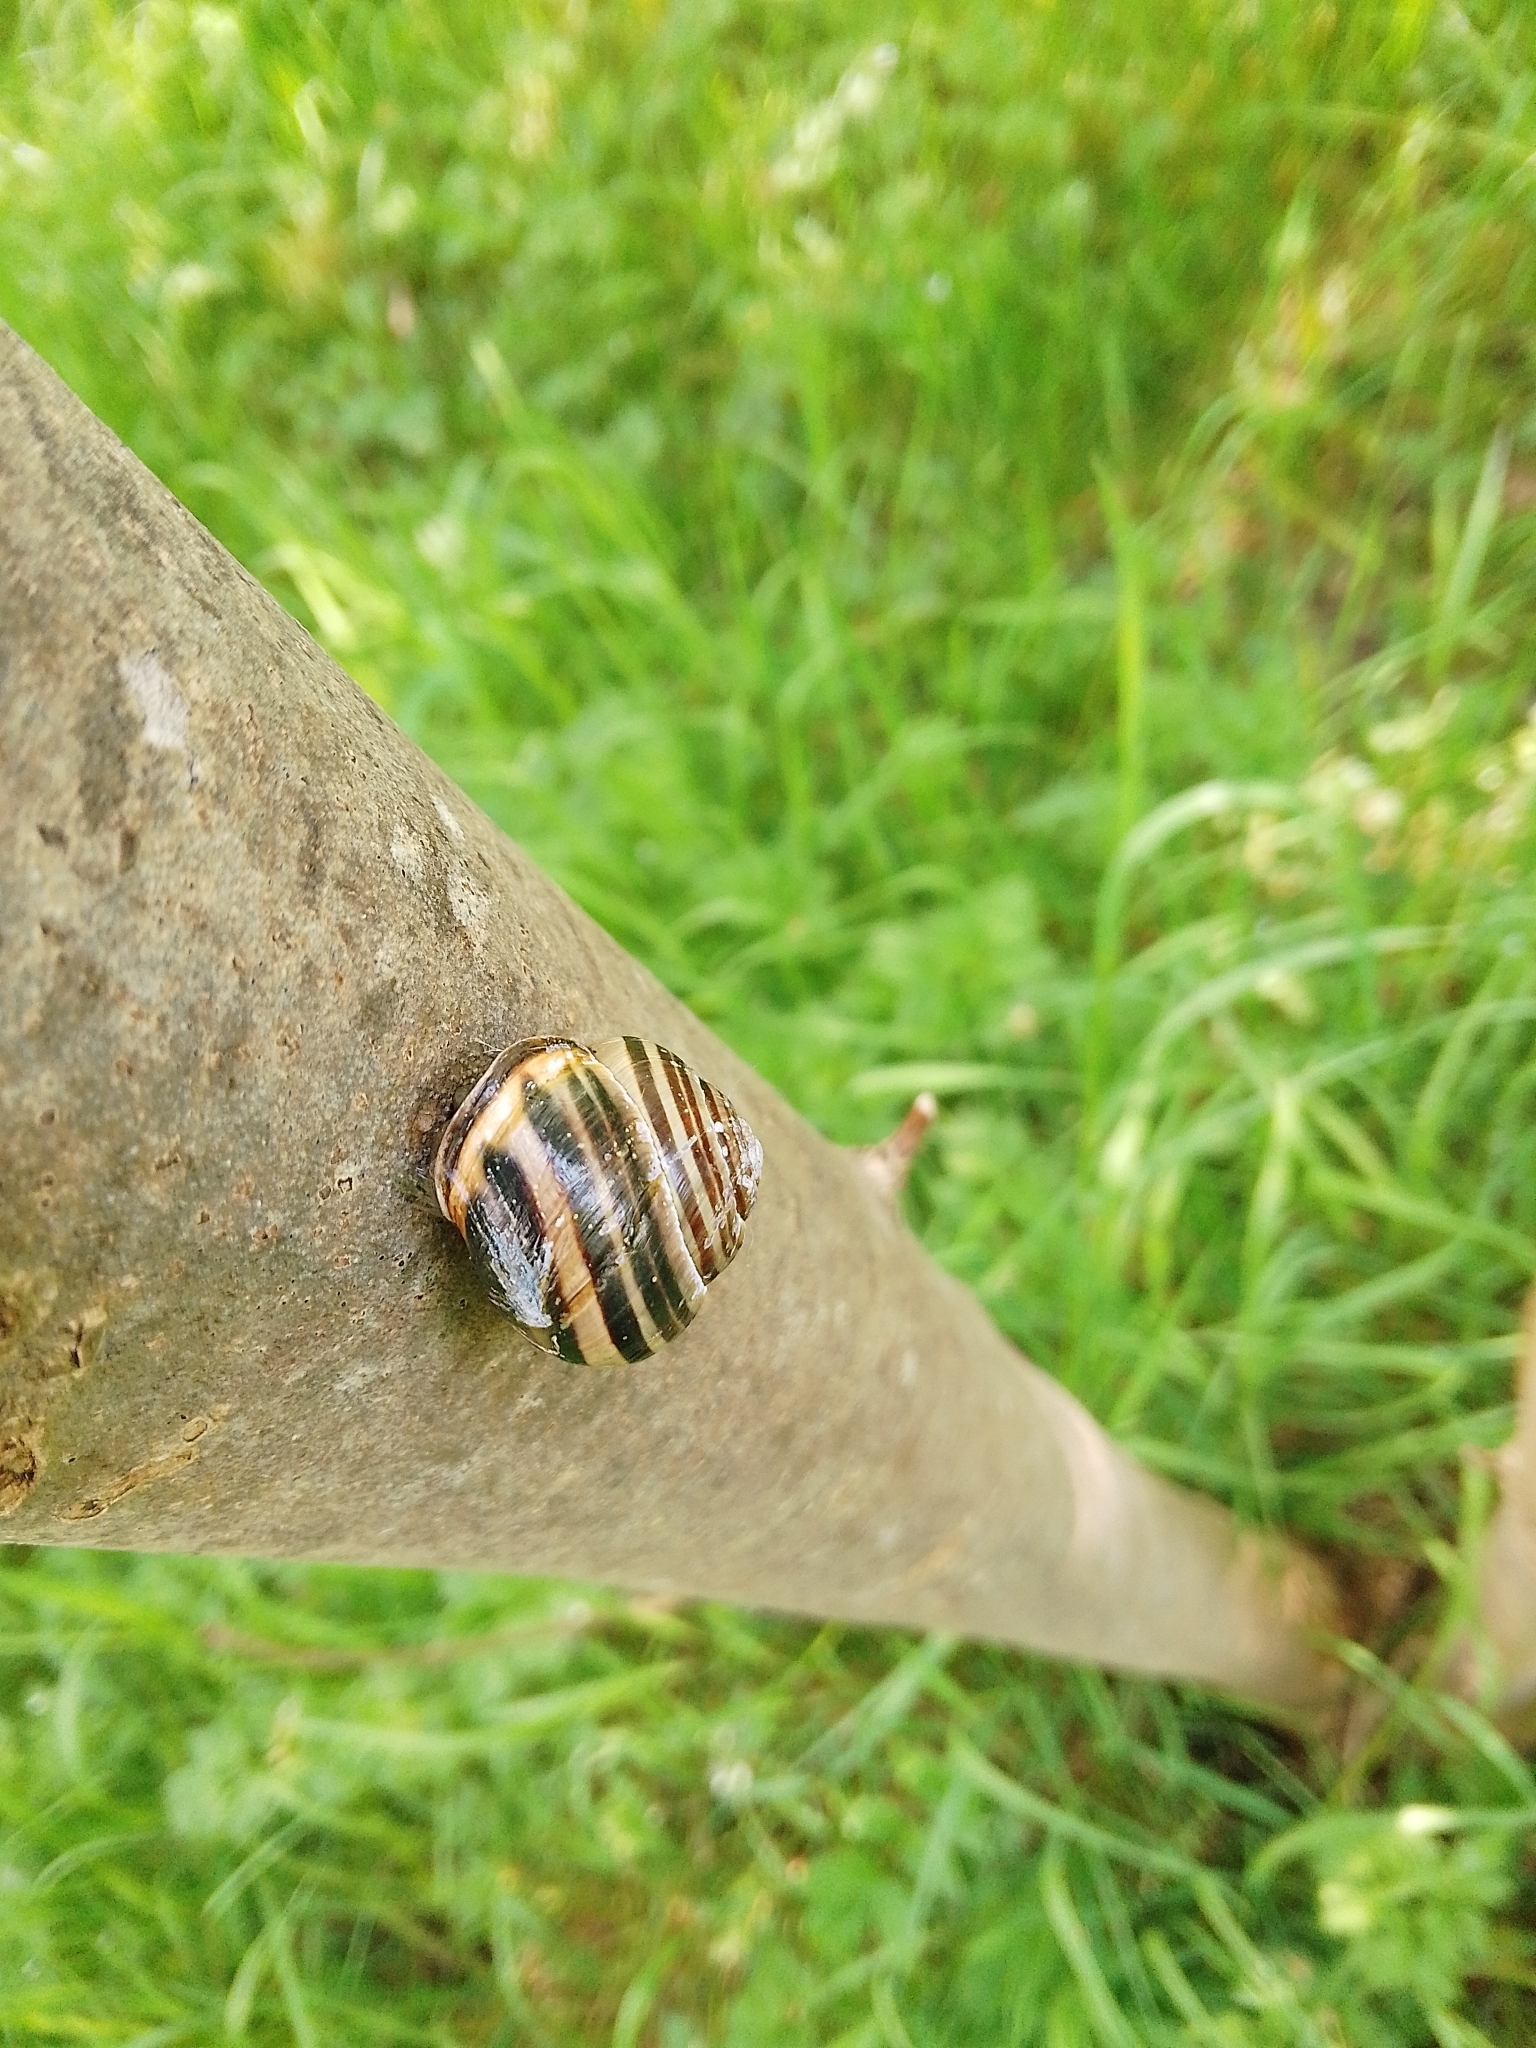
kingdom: Animalia
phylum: Mollusca
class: Gastropoda
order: Stylommatophora
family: Helicidae
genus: Cepaea
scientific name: Cepaea nemoralis
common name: Grovesnail
